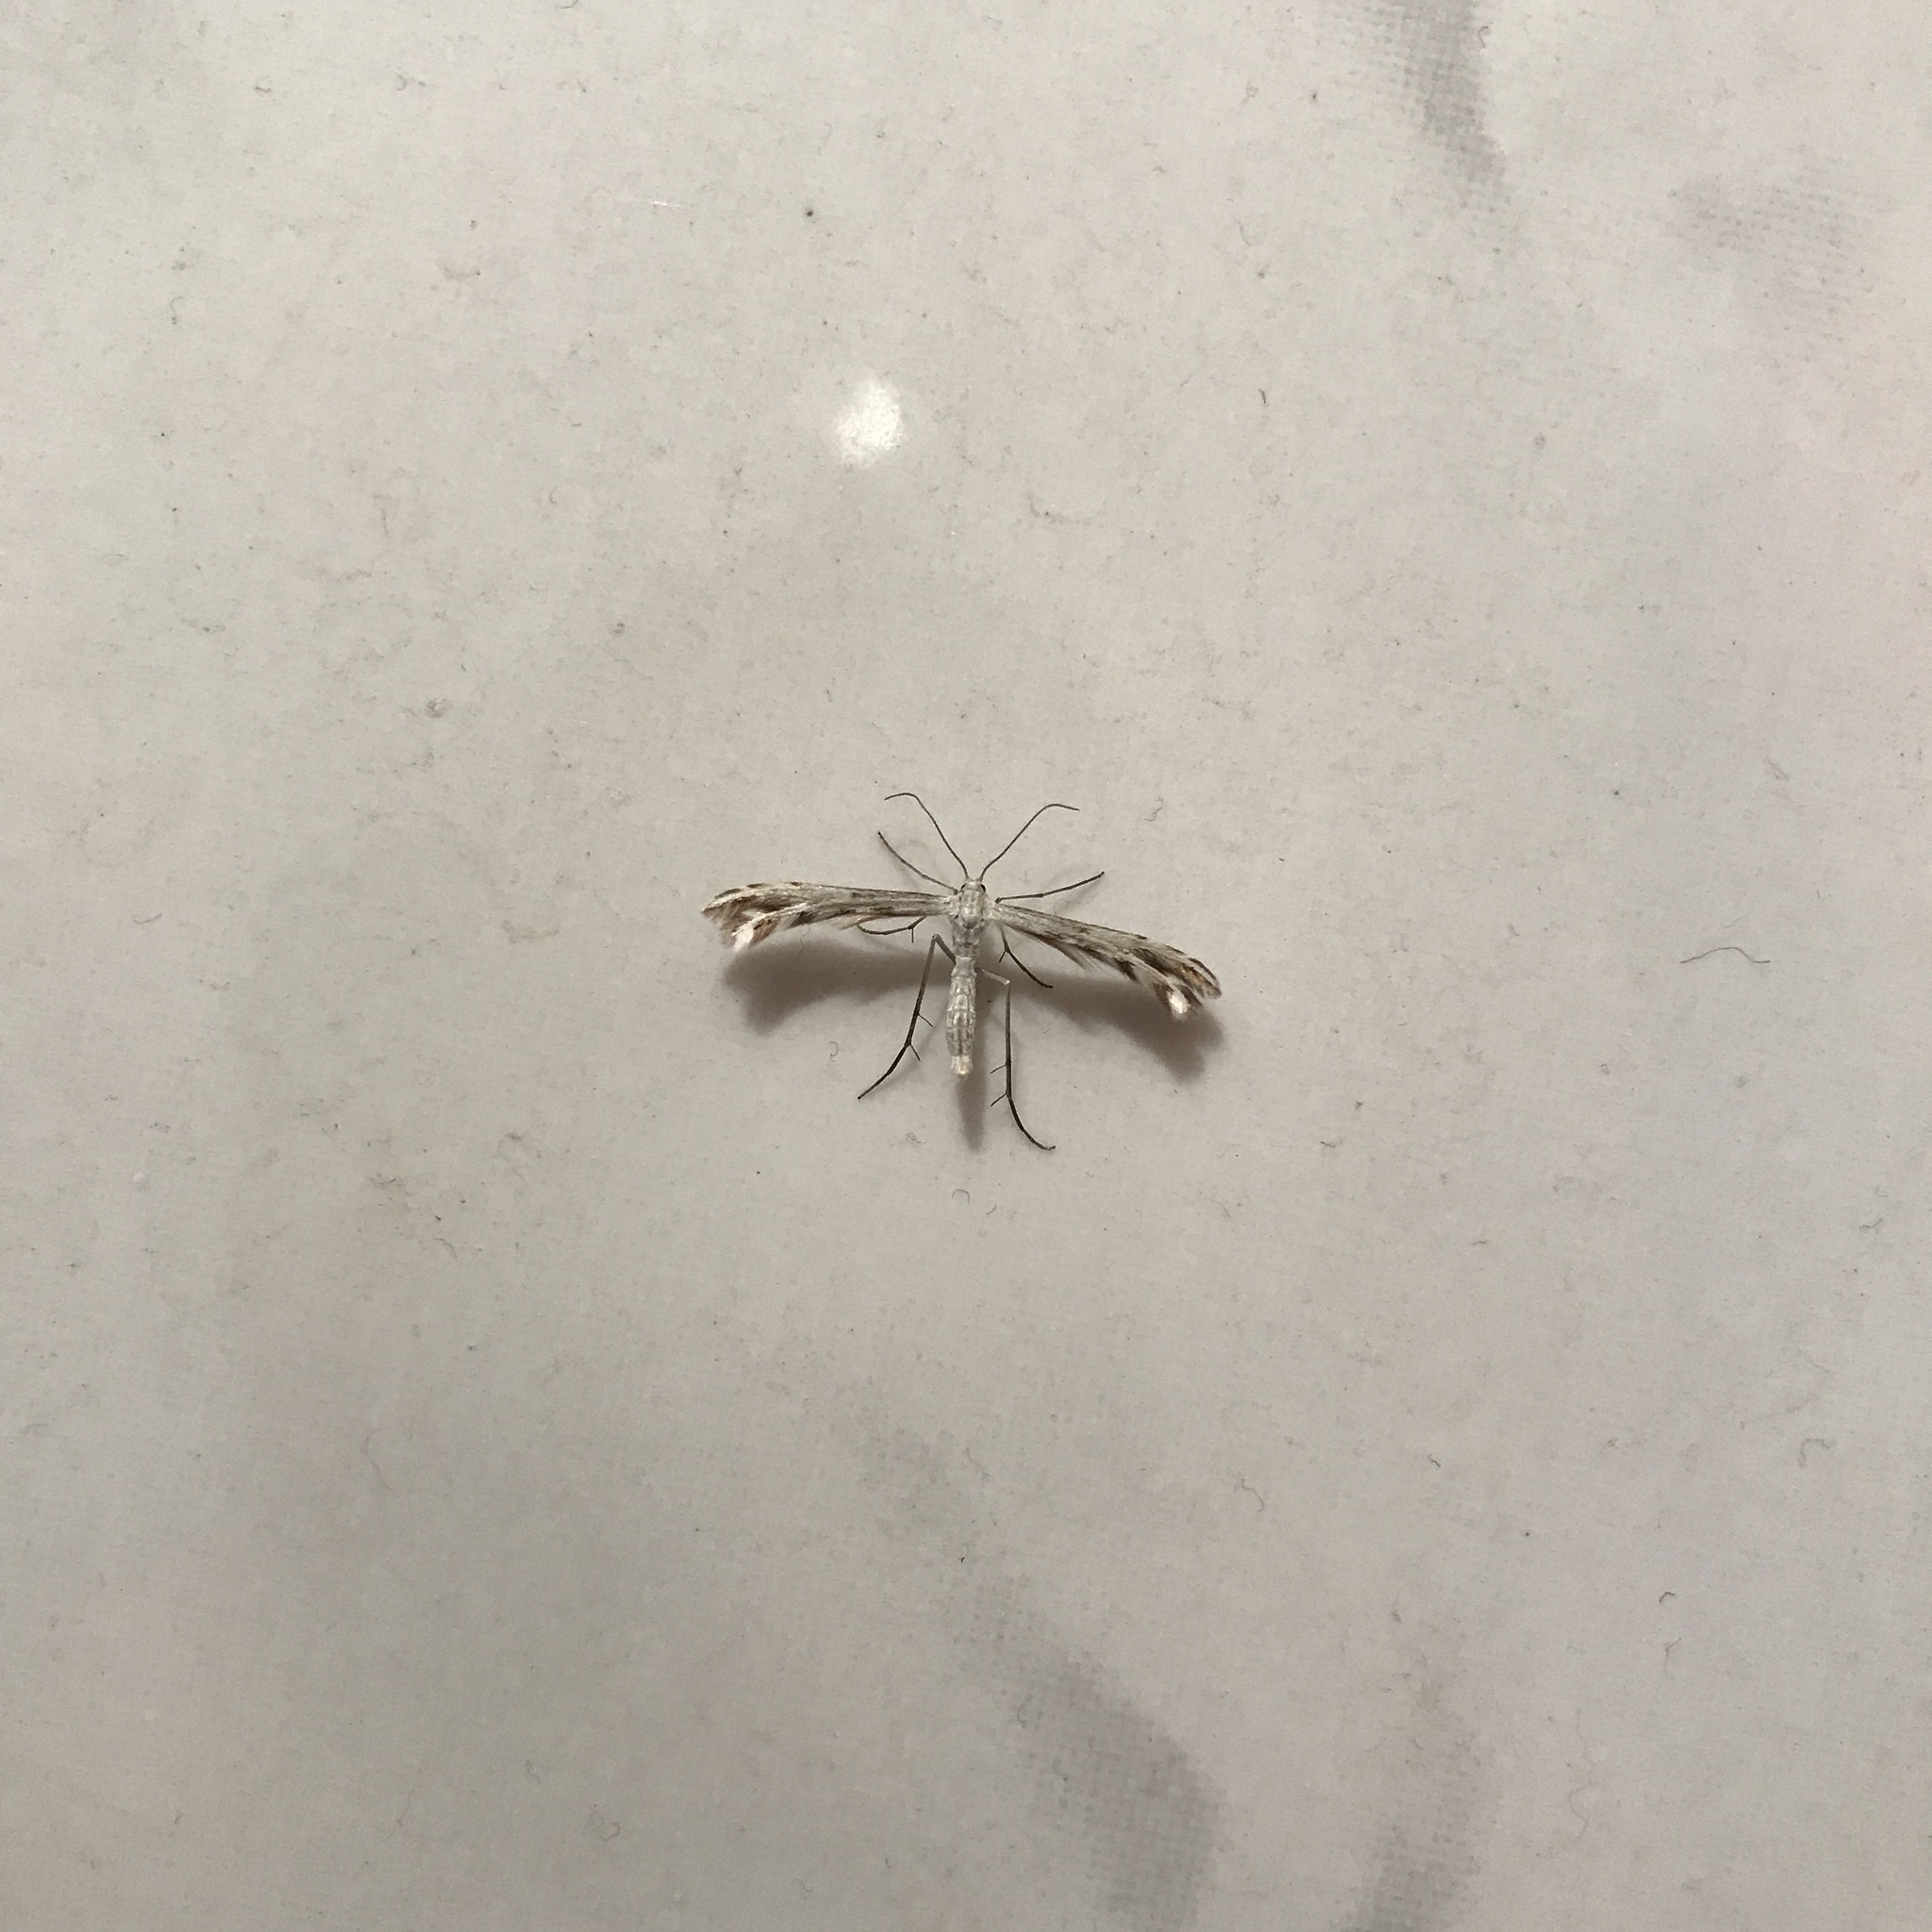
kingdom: Animalia
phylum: Arthropoda
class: Insecta
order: Lepidoptera
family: Pterophoridae
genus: Singularia
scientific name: Singularia alternaria
